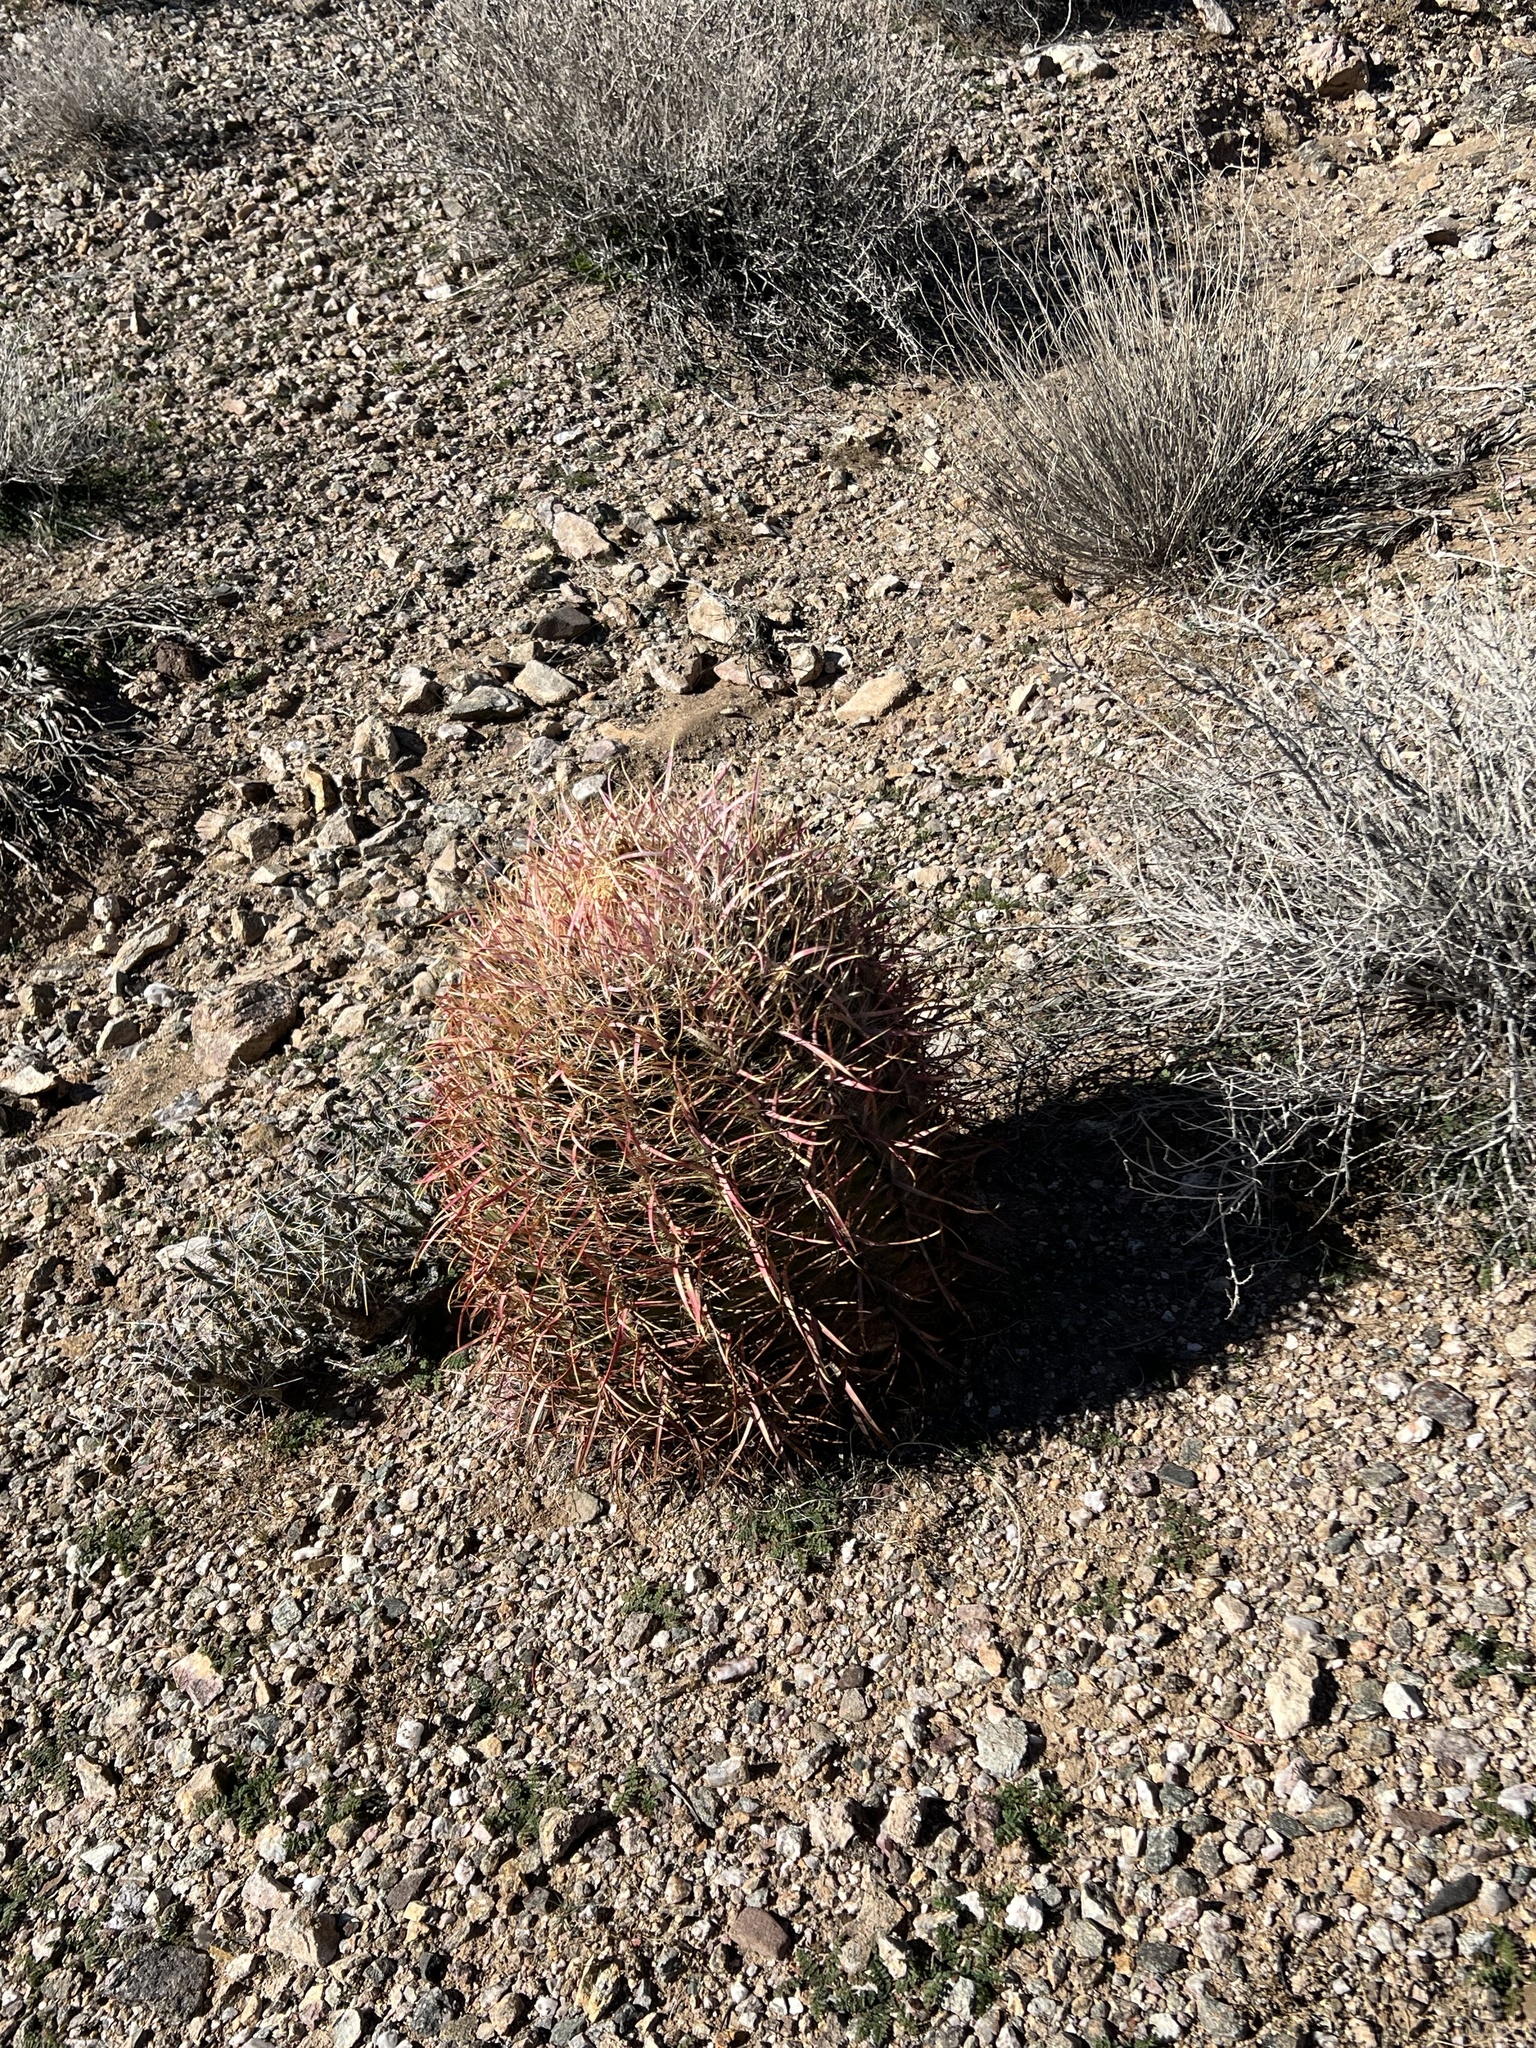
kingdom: Plantae
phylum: Tracheophyta
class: Magnoliopsida
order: Caryophyllales
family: Cactaceae
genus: Ferocactus
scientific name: Ferocactus cylindraceus
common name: California barrel cactus
